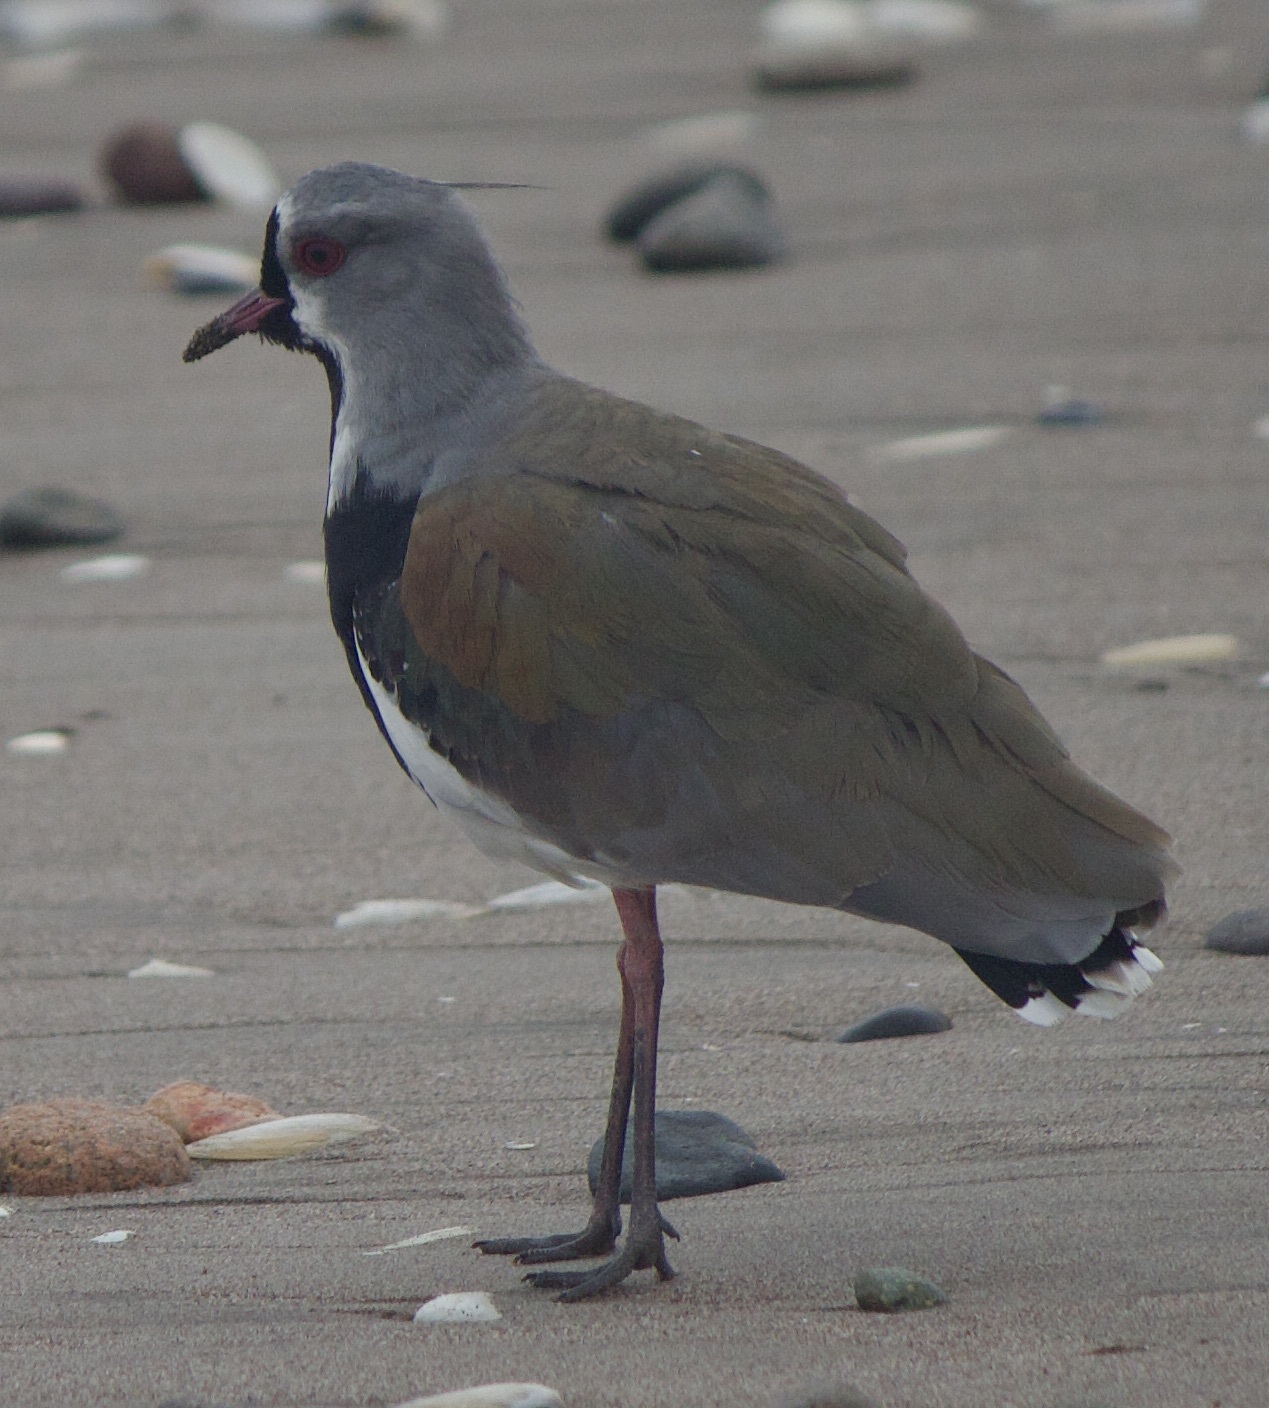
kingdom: Animalia
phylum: Chordata
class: Aves
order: Charadriiformes
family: Charadriidae
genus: Vanellus
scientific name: Vanellus chilensis
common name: Southern lapwing
